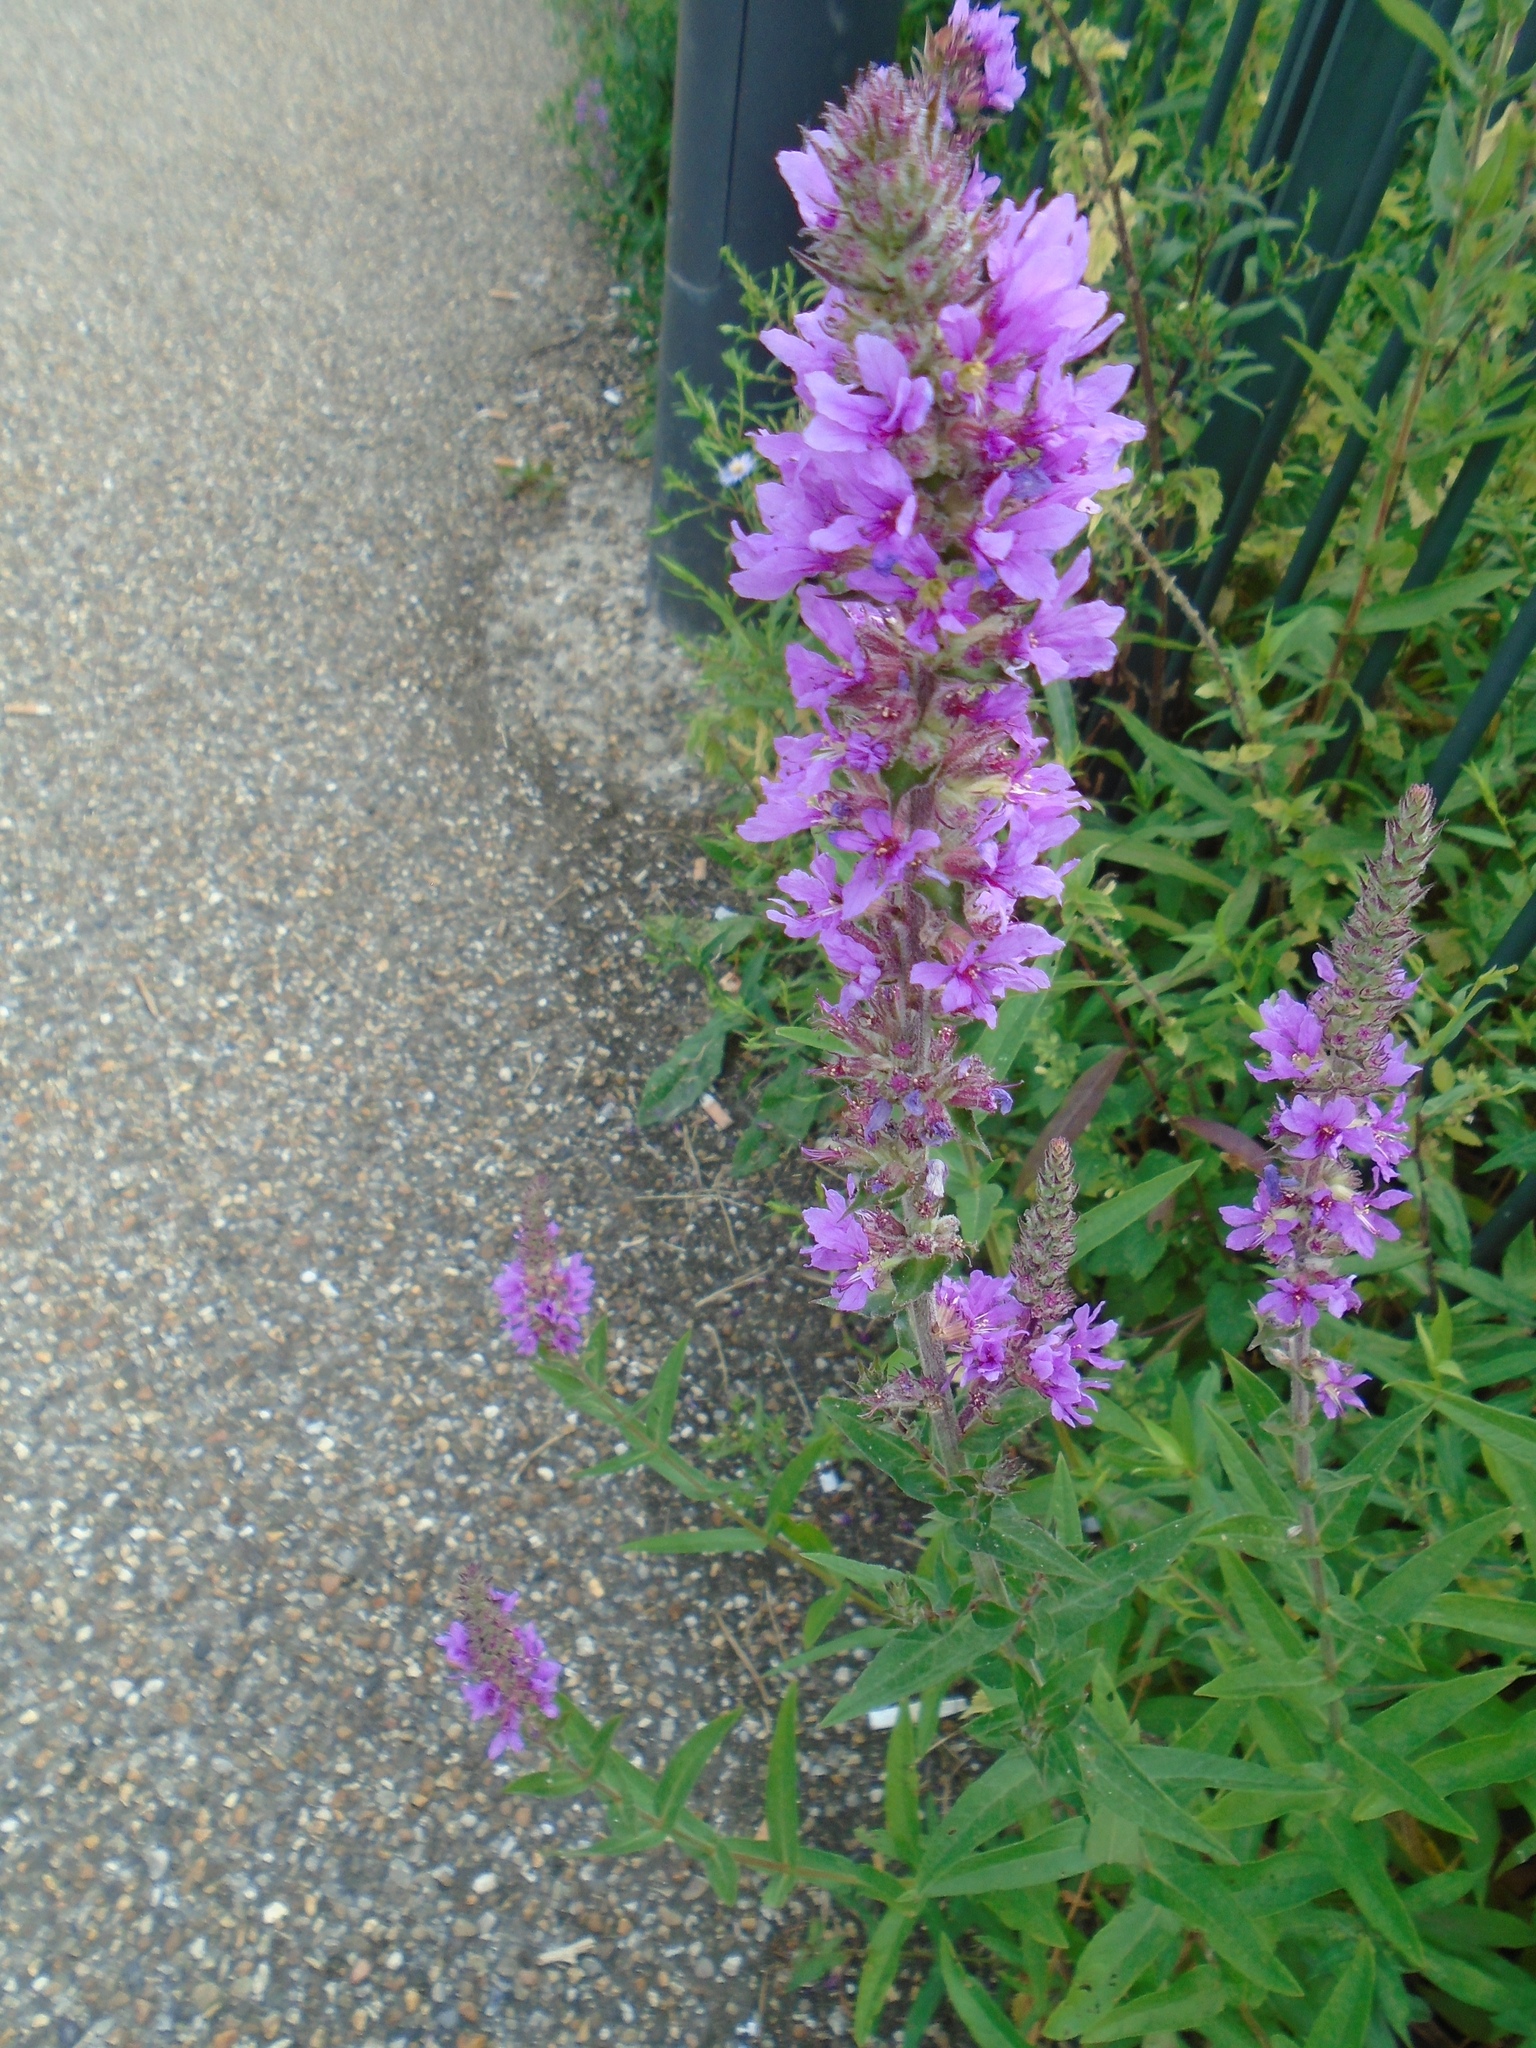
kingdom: Plantae
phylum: Tracheophyta
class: Magnoliopsida
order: Myrtales
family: Lythraceae
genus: Lythrum
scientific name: Lythrum salicaria
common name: Purple loosestrife
